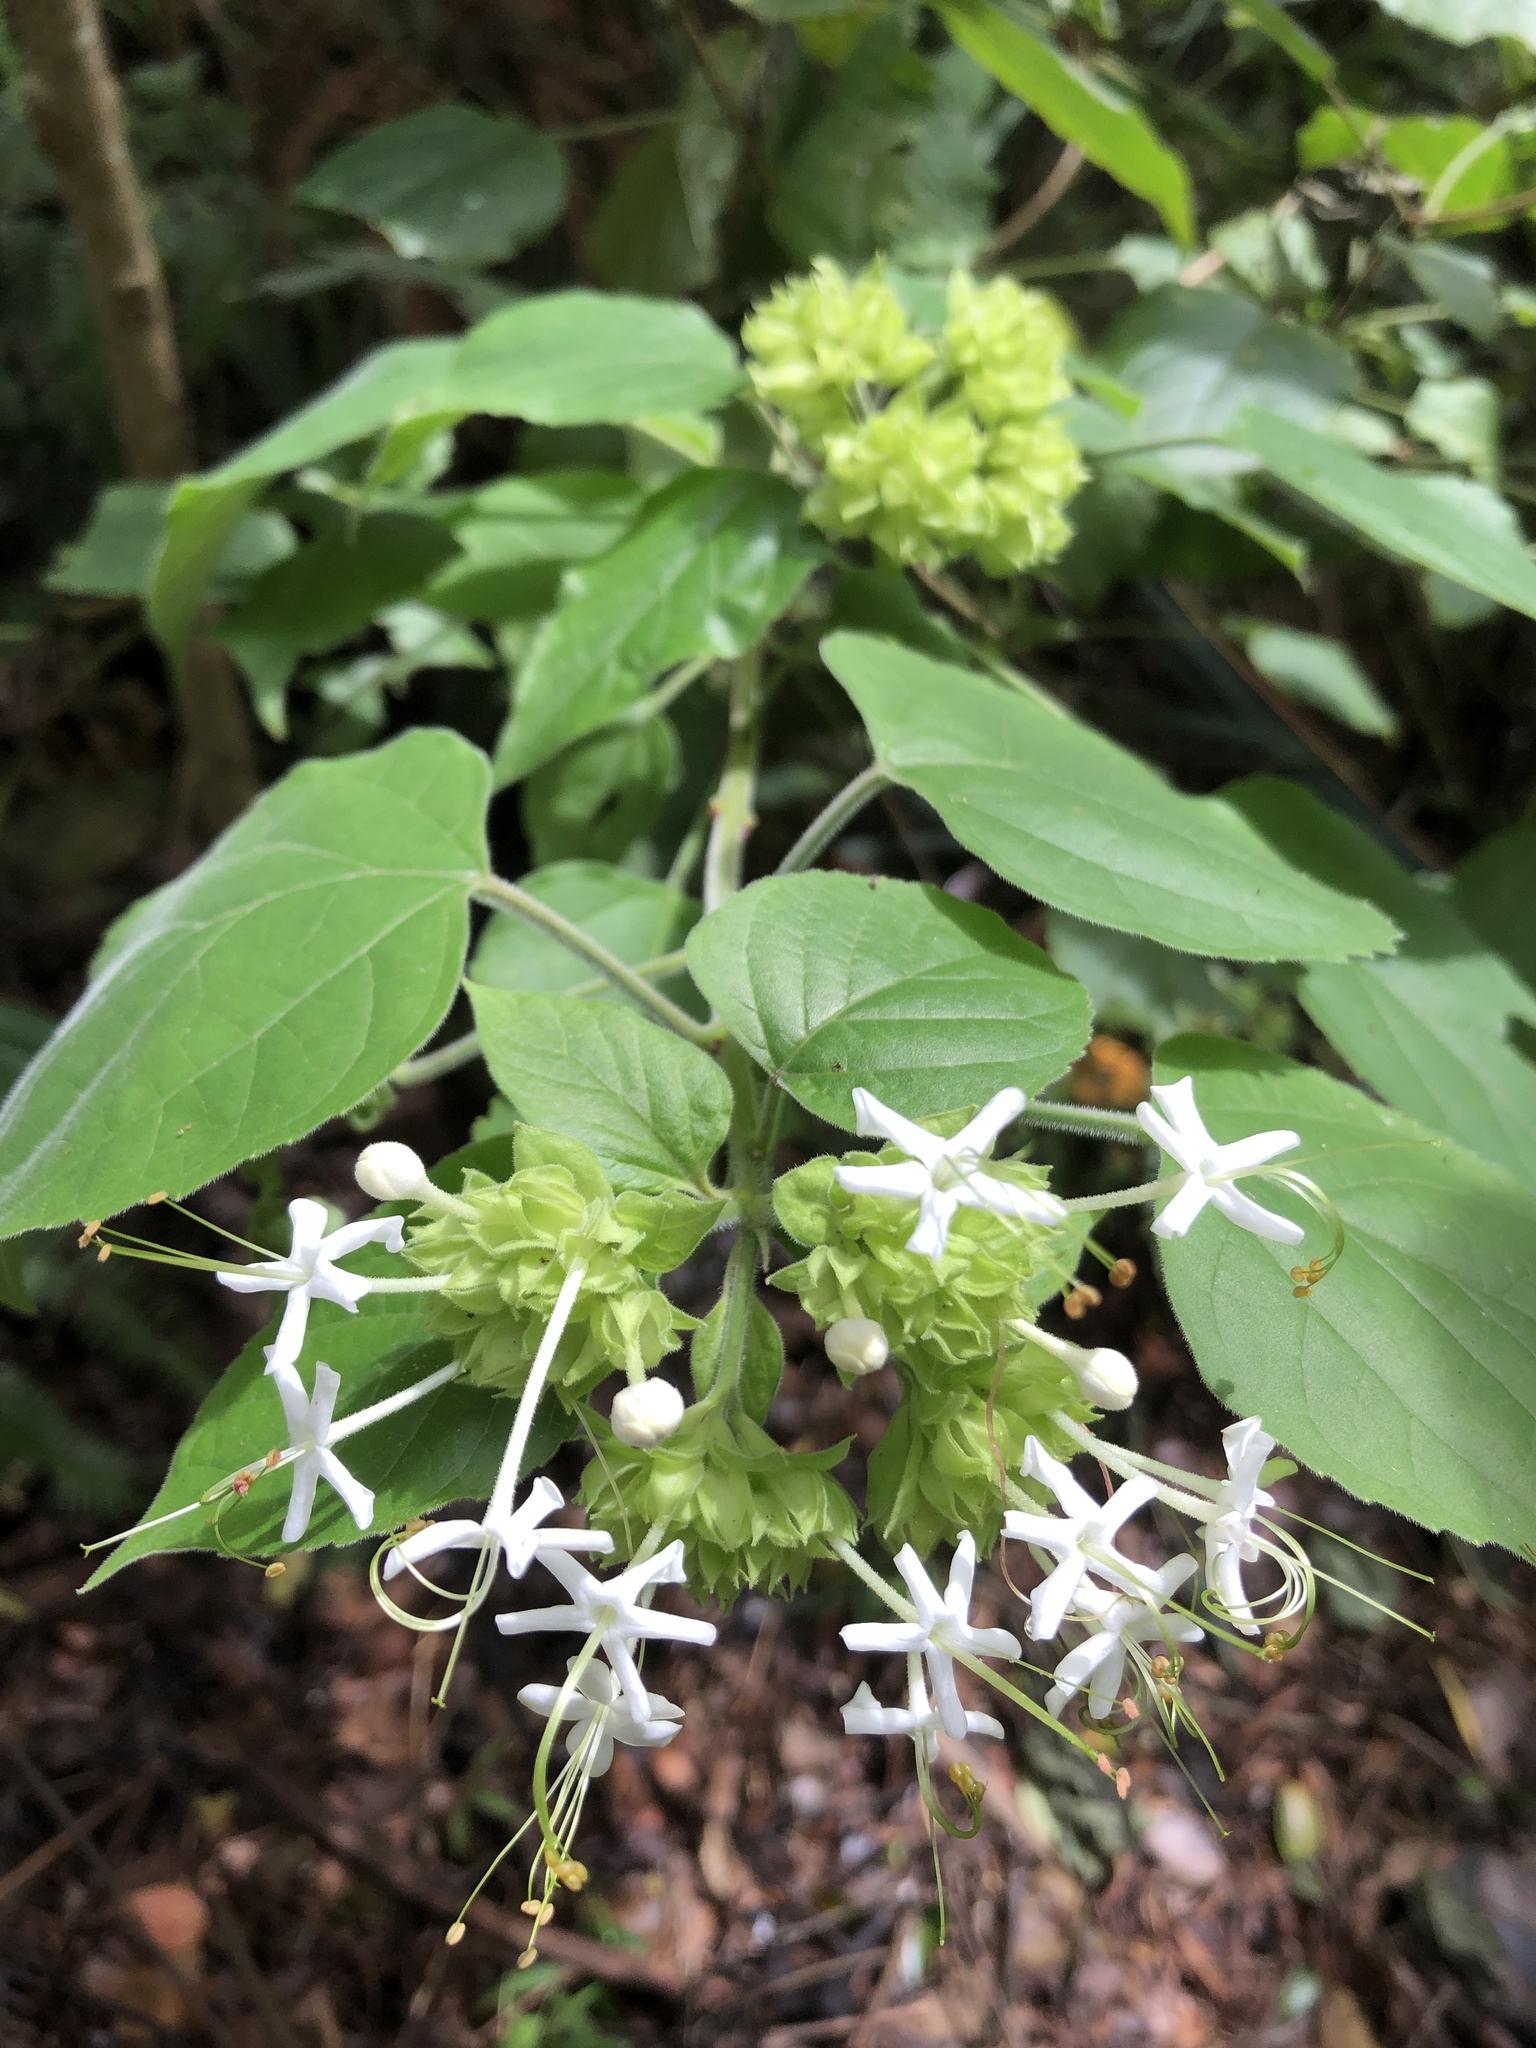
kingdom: Plantae
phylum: Tracheophyta
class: Magnoliopsida
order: Lamiales
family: Lamiaceae
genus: Clerodendrum
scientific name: Clerodendrum canescens
